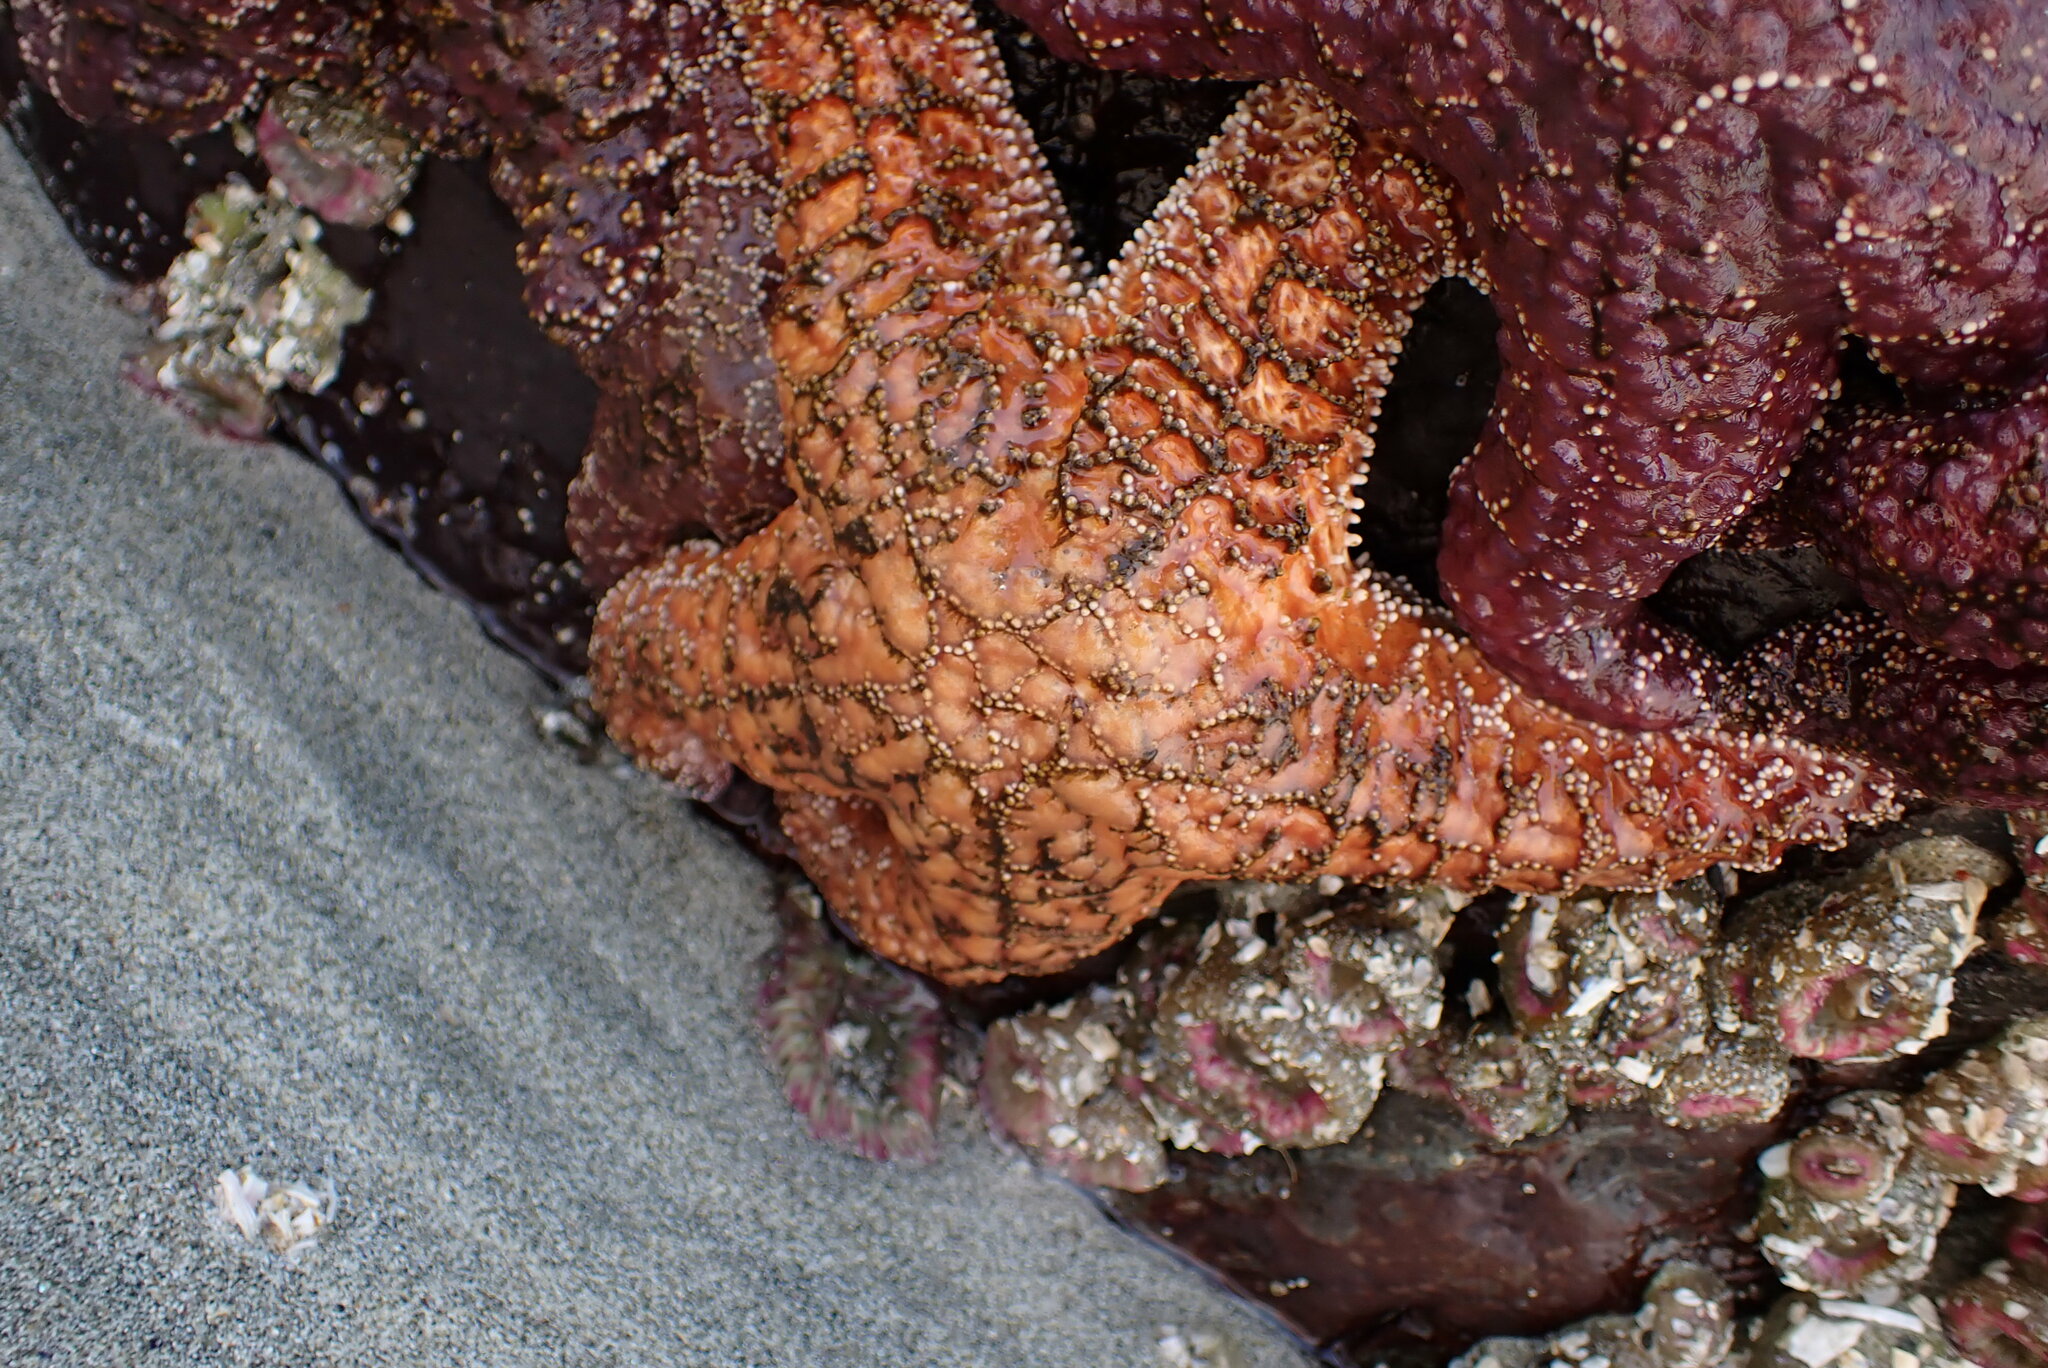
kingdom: Animalia
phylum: Echinodermata
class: Asteroidea
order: Forcipulatida
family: Asteriidae
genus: Pisaster
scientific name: Pisaster ochraceus
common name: Ochre stars
